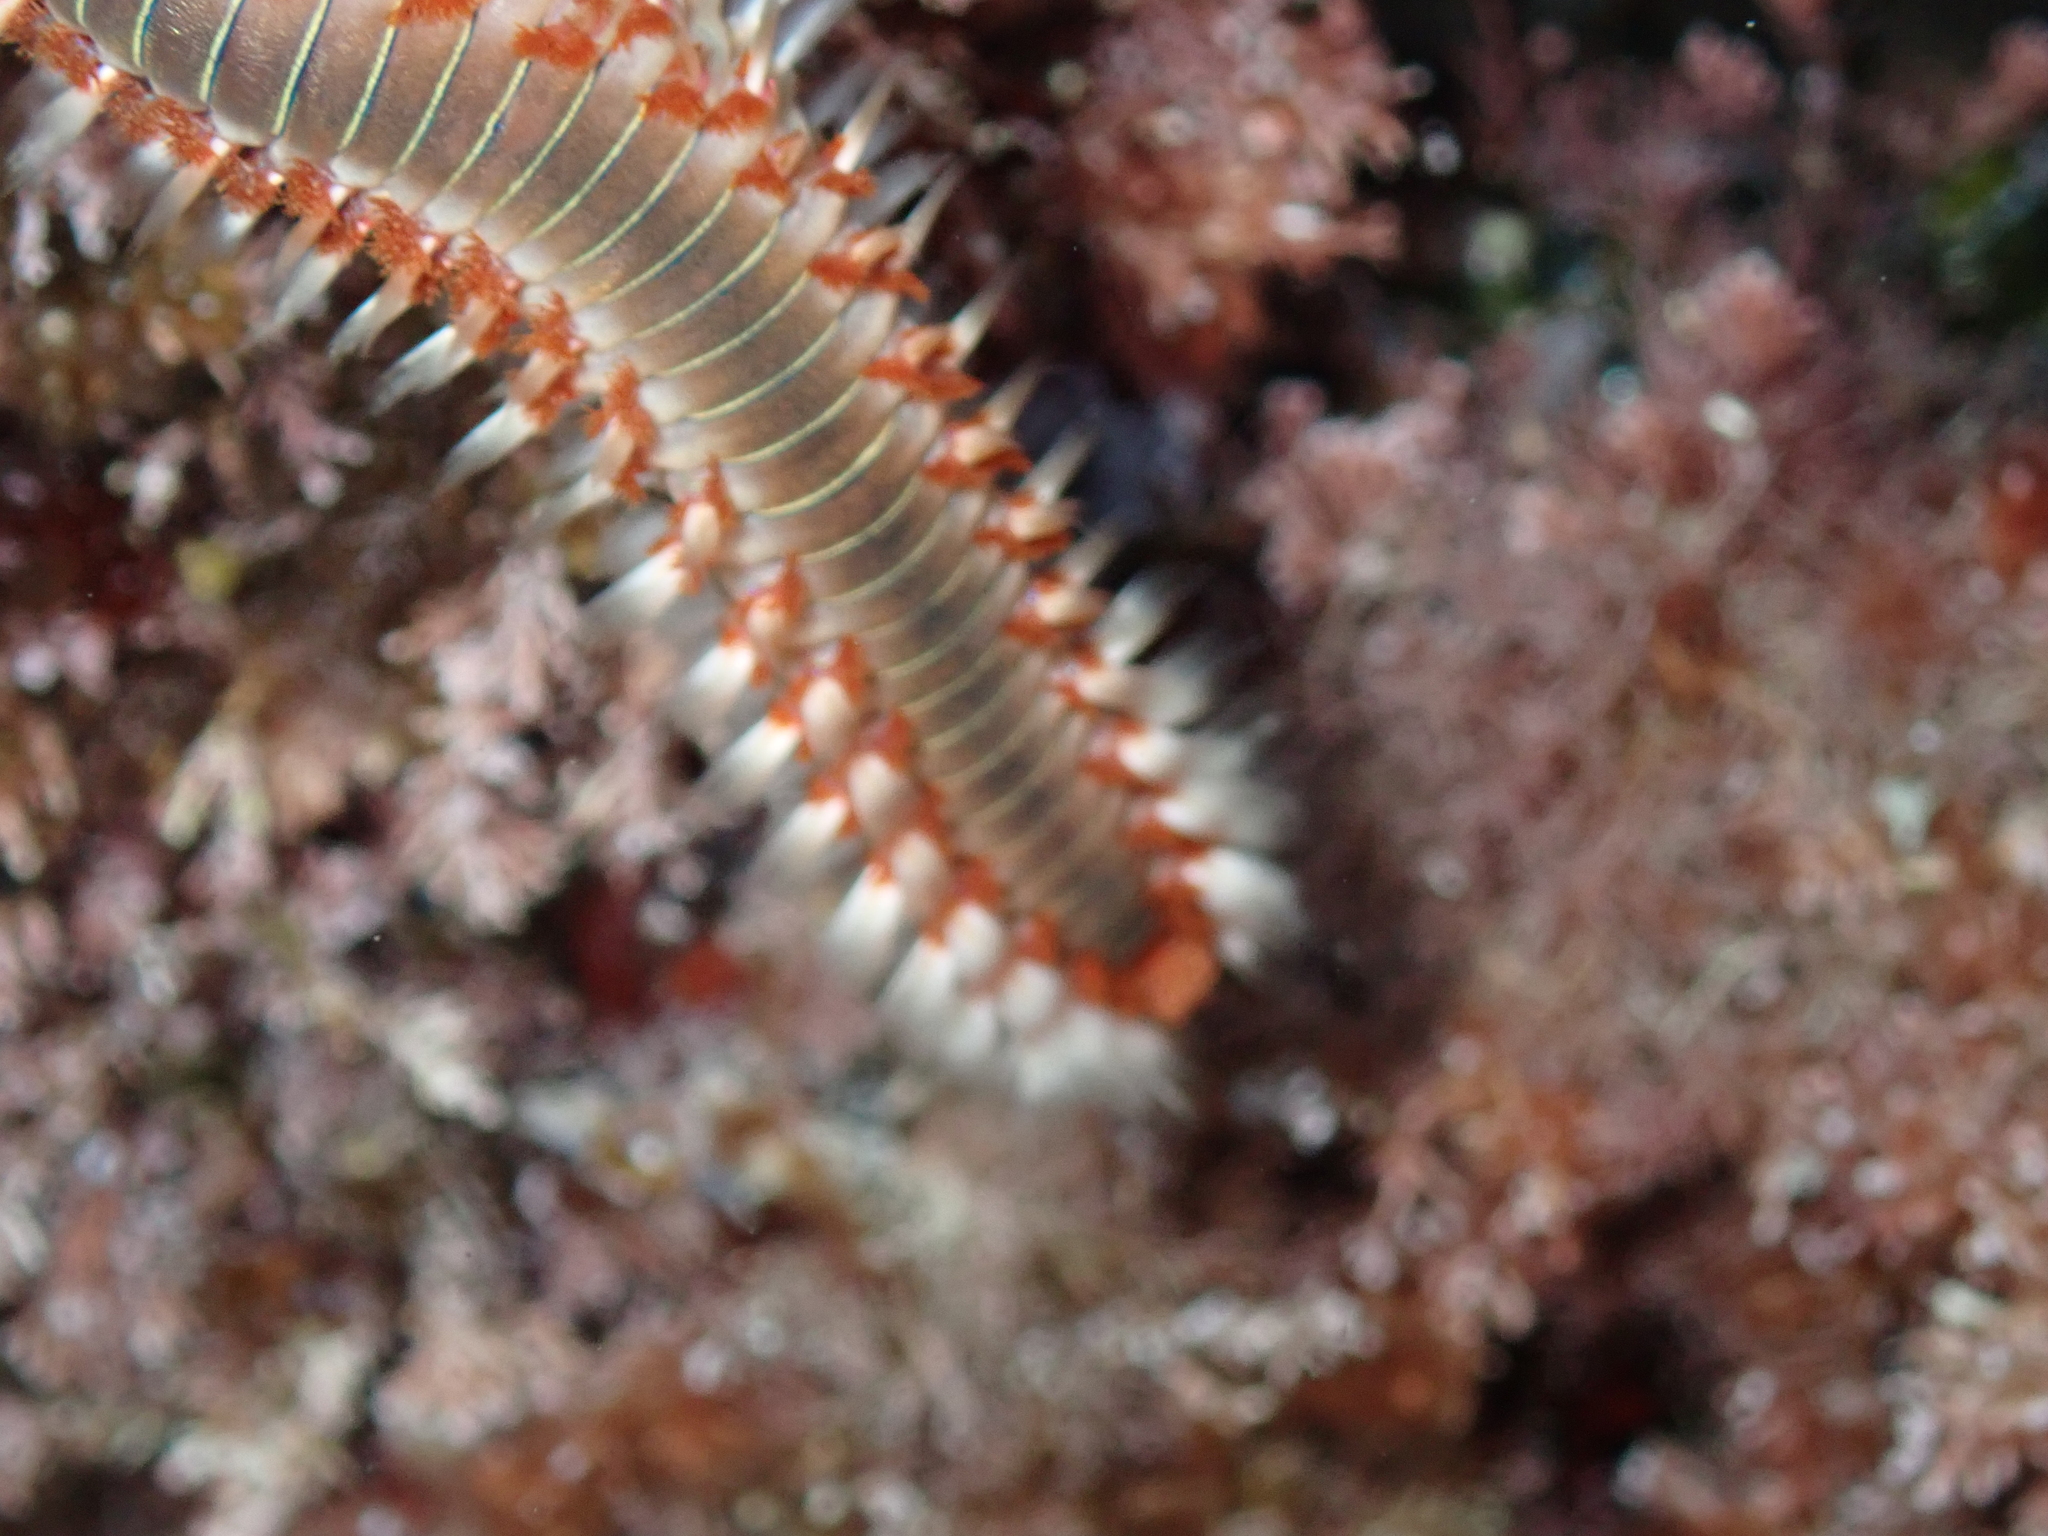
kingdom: Animalia
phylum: Annelida
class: Polychaeta
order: Amphinomida
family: Amphinomidae
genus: Hermodice
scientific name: Hermodice carunculata
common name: Bearded fireworm
